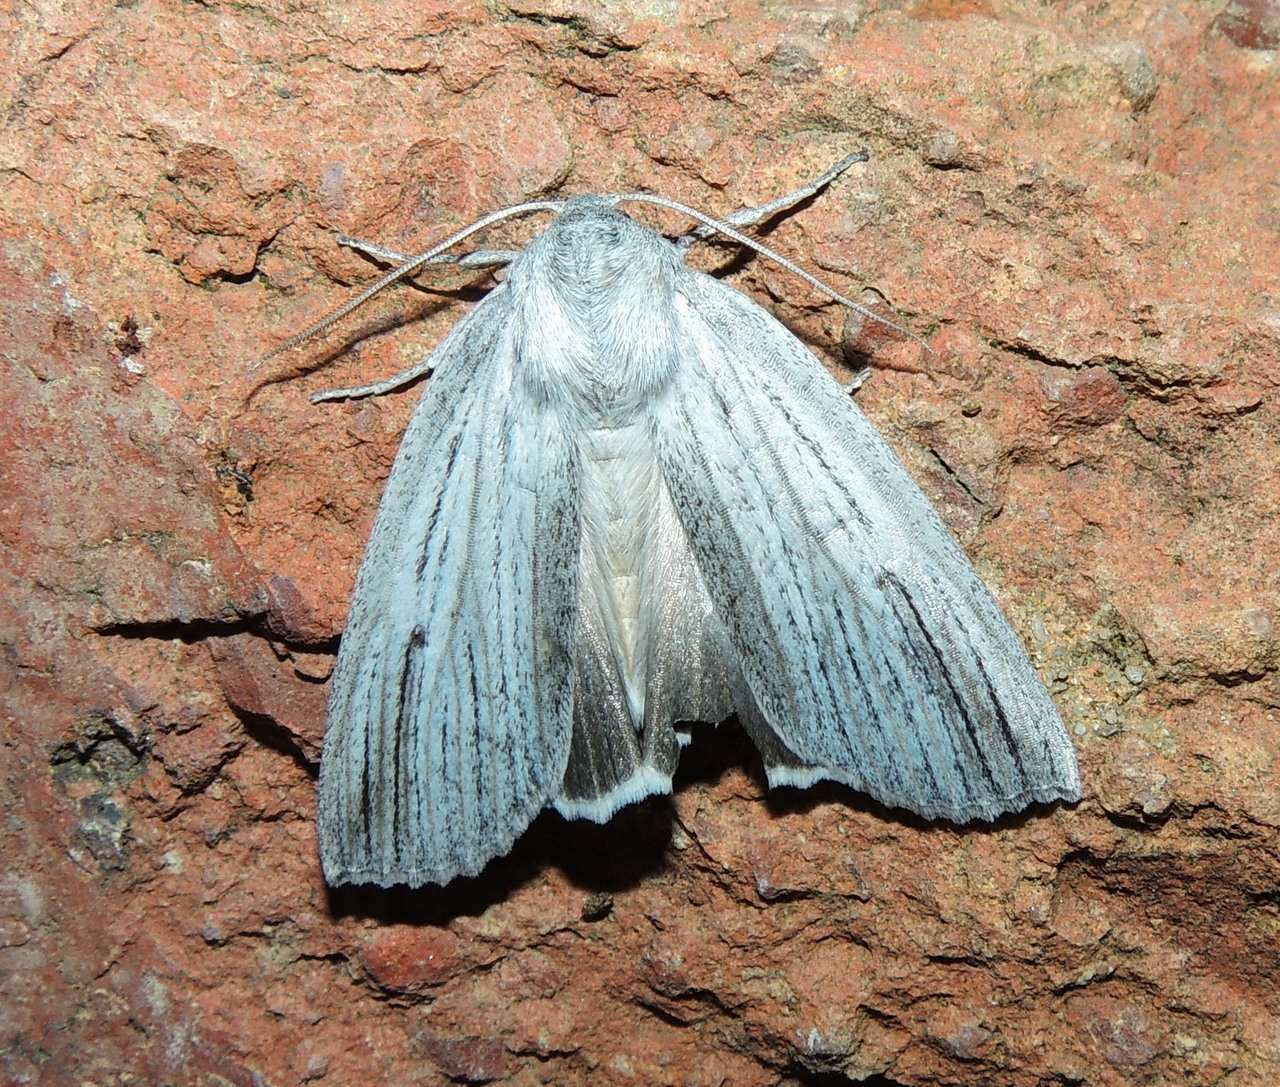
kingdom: Animalia
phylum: Arthropoda
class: Insecta
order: Lepidoptera
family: Geometridae
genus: Paralaea
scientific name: Paralaea polysticha
